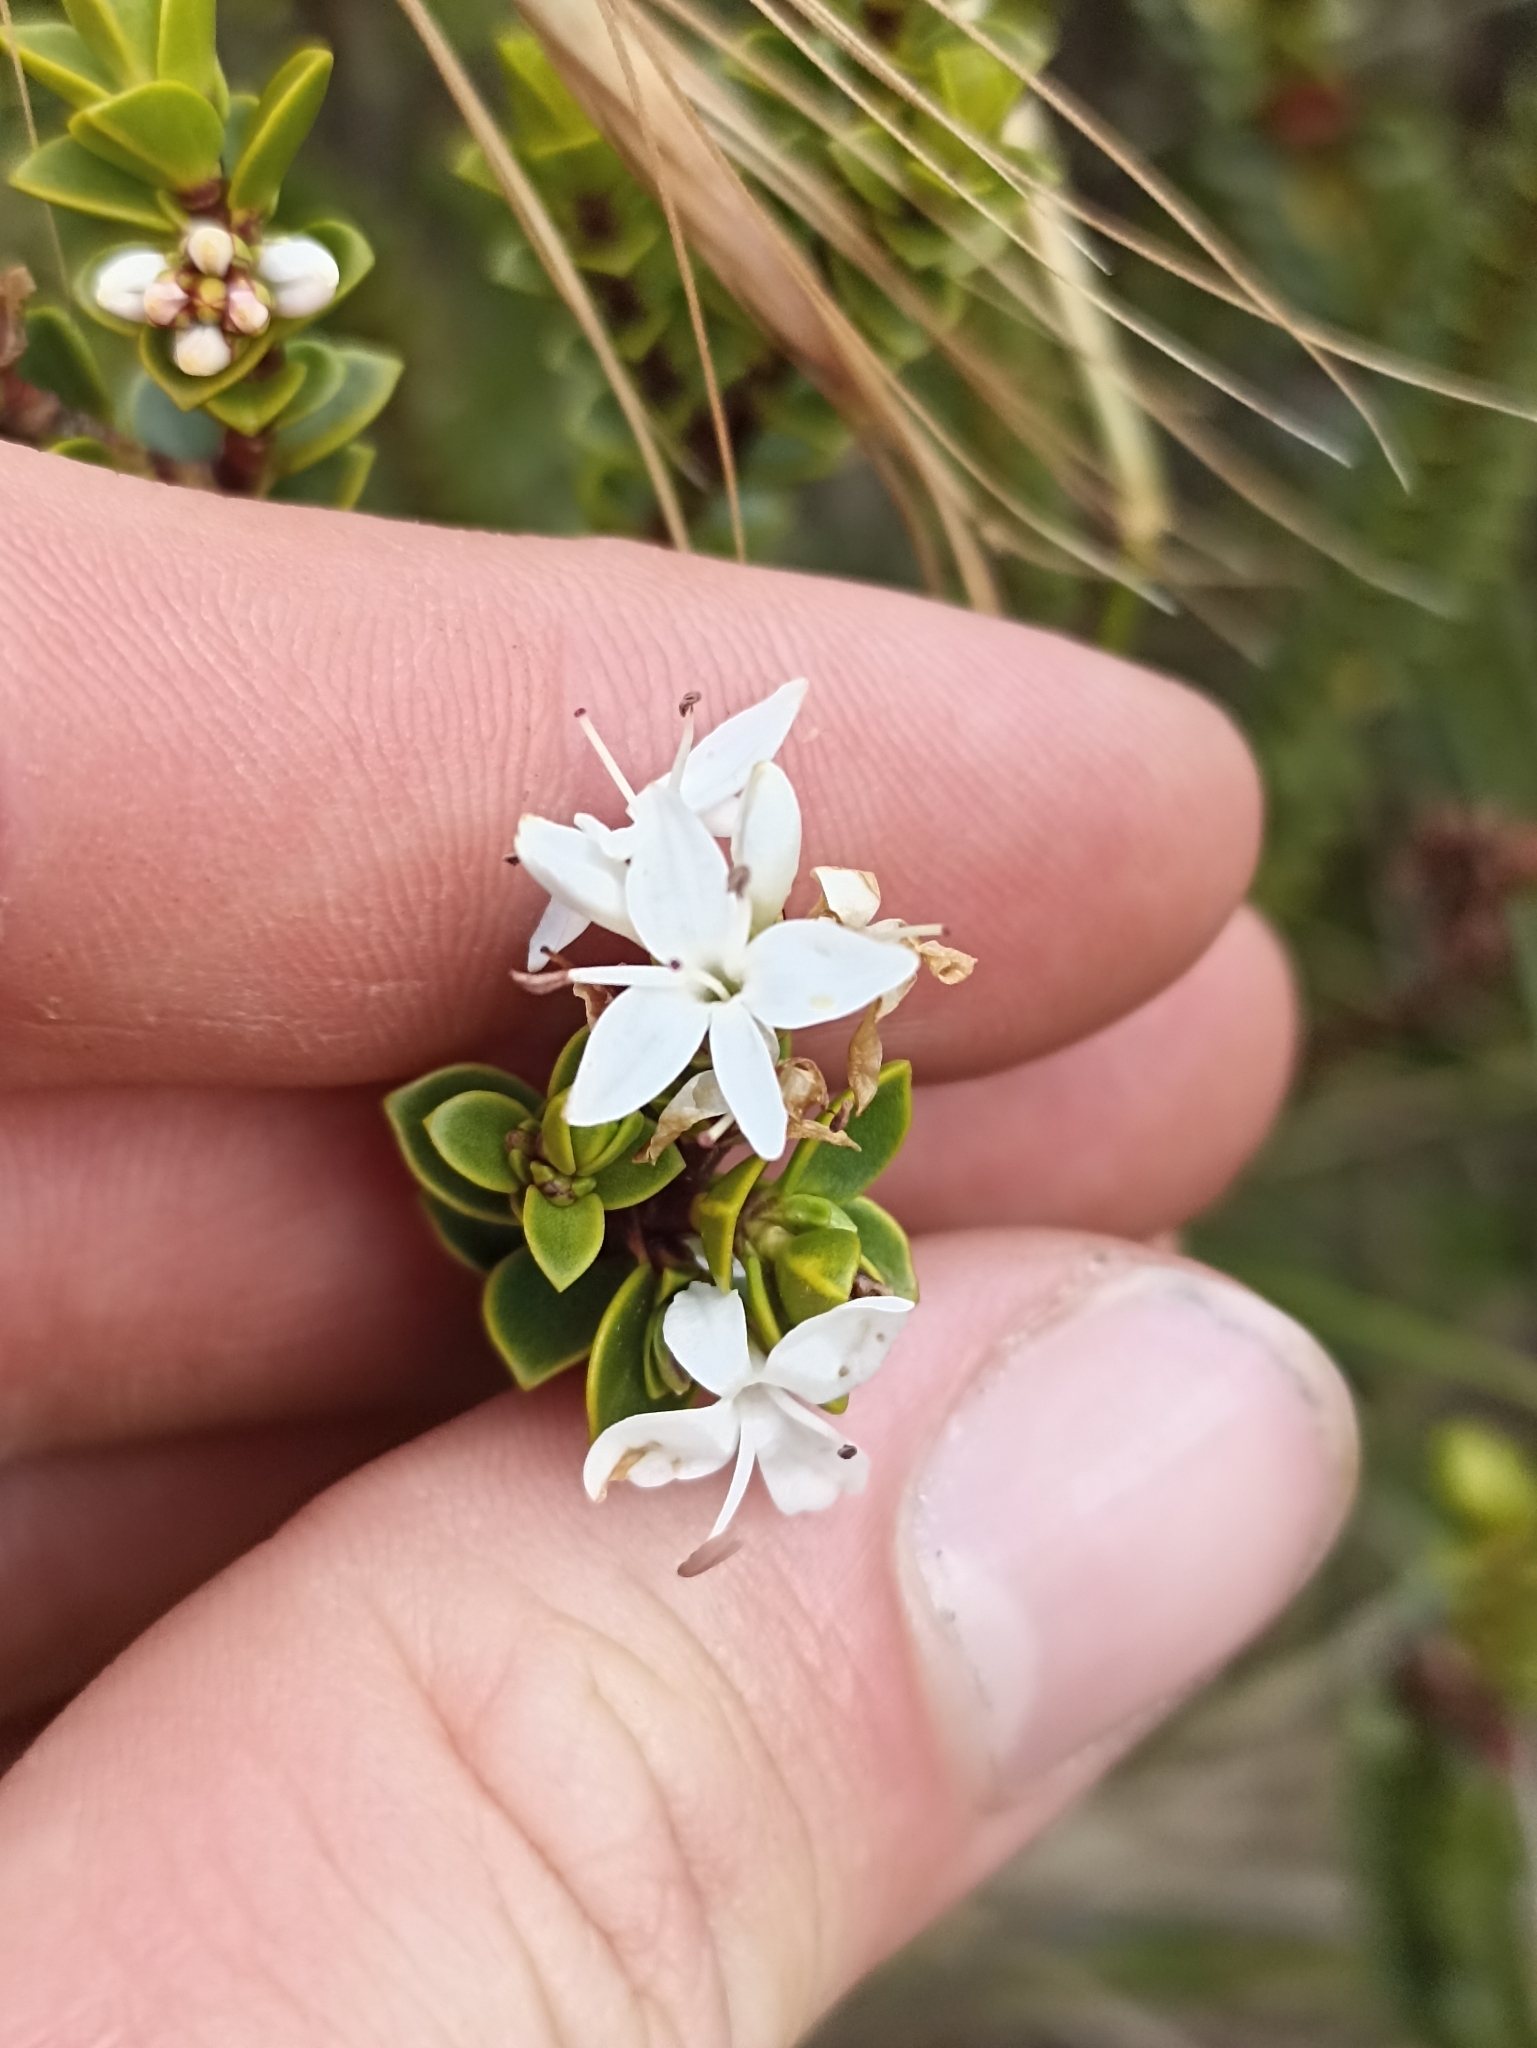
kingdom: Plantae
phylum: Tracheophyta
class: Magnoliopsida
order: Lamiales
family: Plantaginaceae
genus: Veronica
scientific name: Veronica pauciramosa
